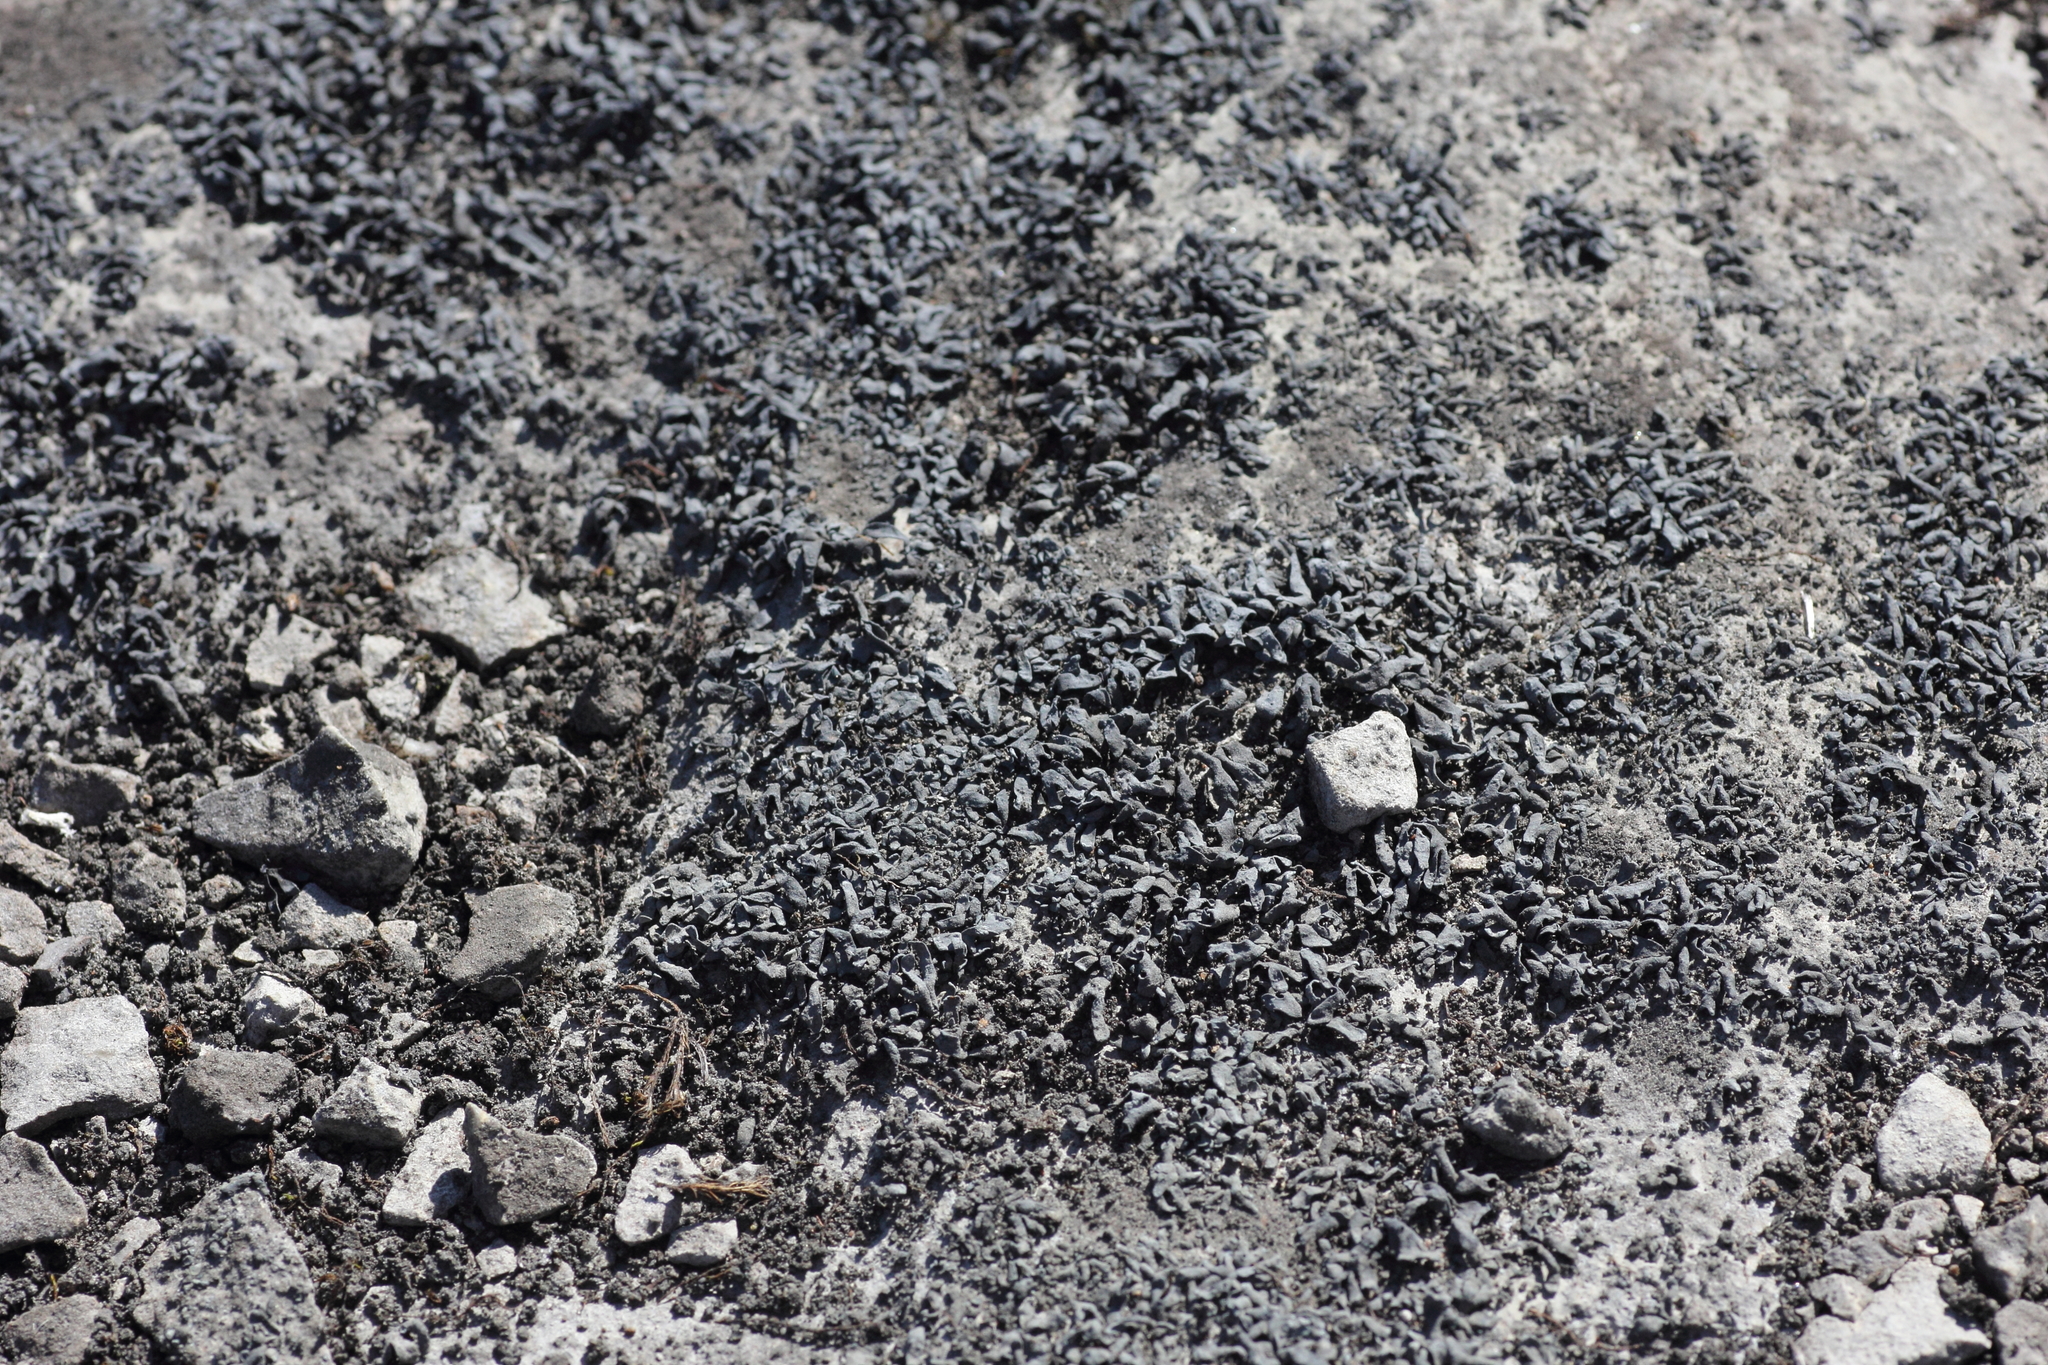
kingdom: Fungi
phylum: Ascomycota
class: Lichinomycetes
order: Lichinales
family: Lichinaceae
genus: Thyrea
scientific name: Thyrea confusa
